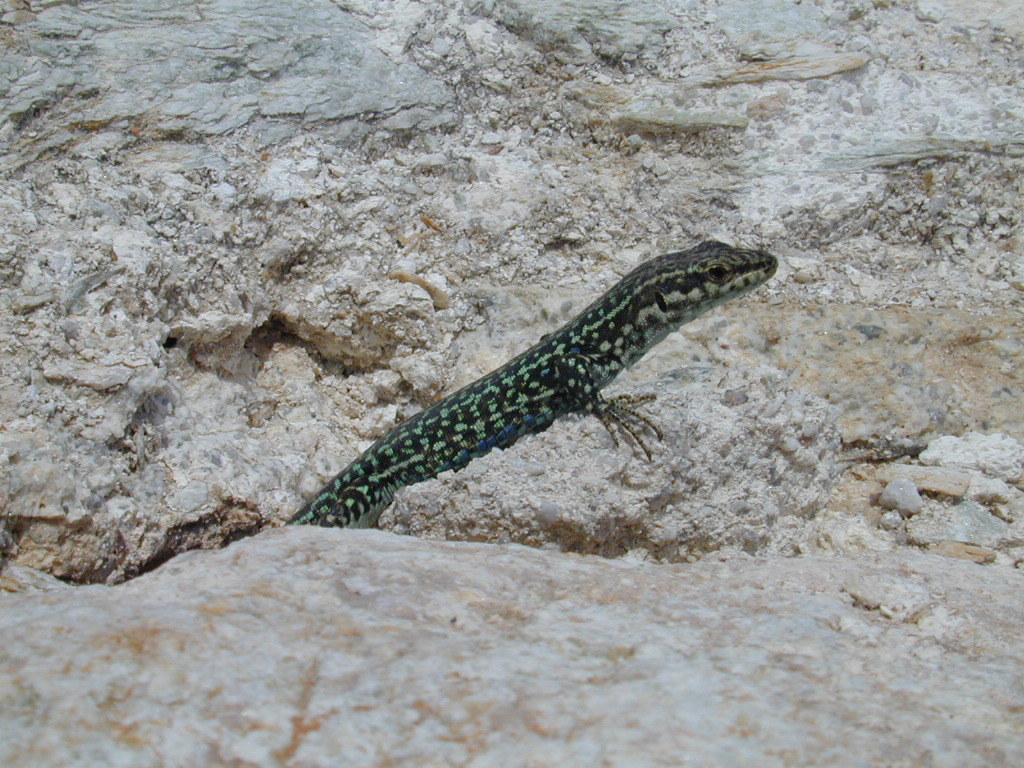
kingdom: Animalia
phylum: Chordata
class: Squamata
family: Lacertidae
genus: Podarcis
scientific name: Podarcis tiliguerta
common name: Tyrrhenian wall lizard
